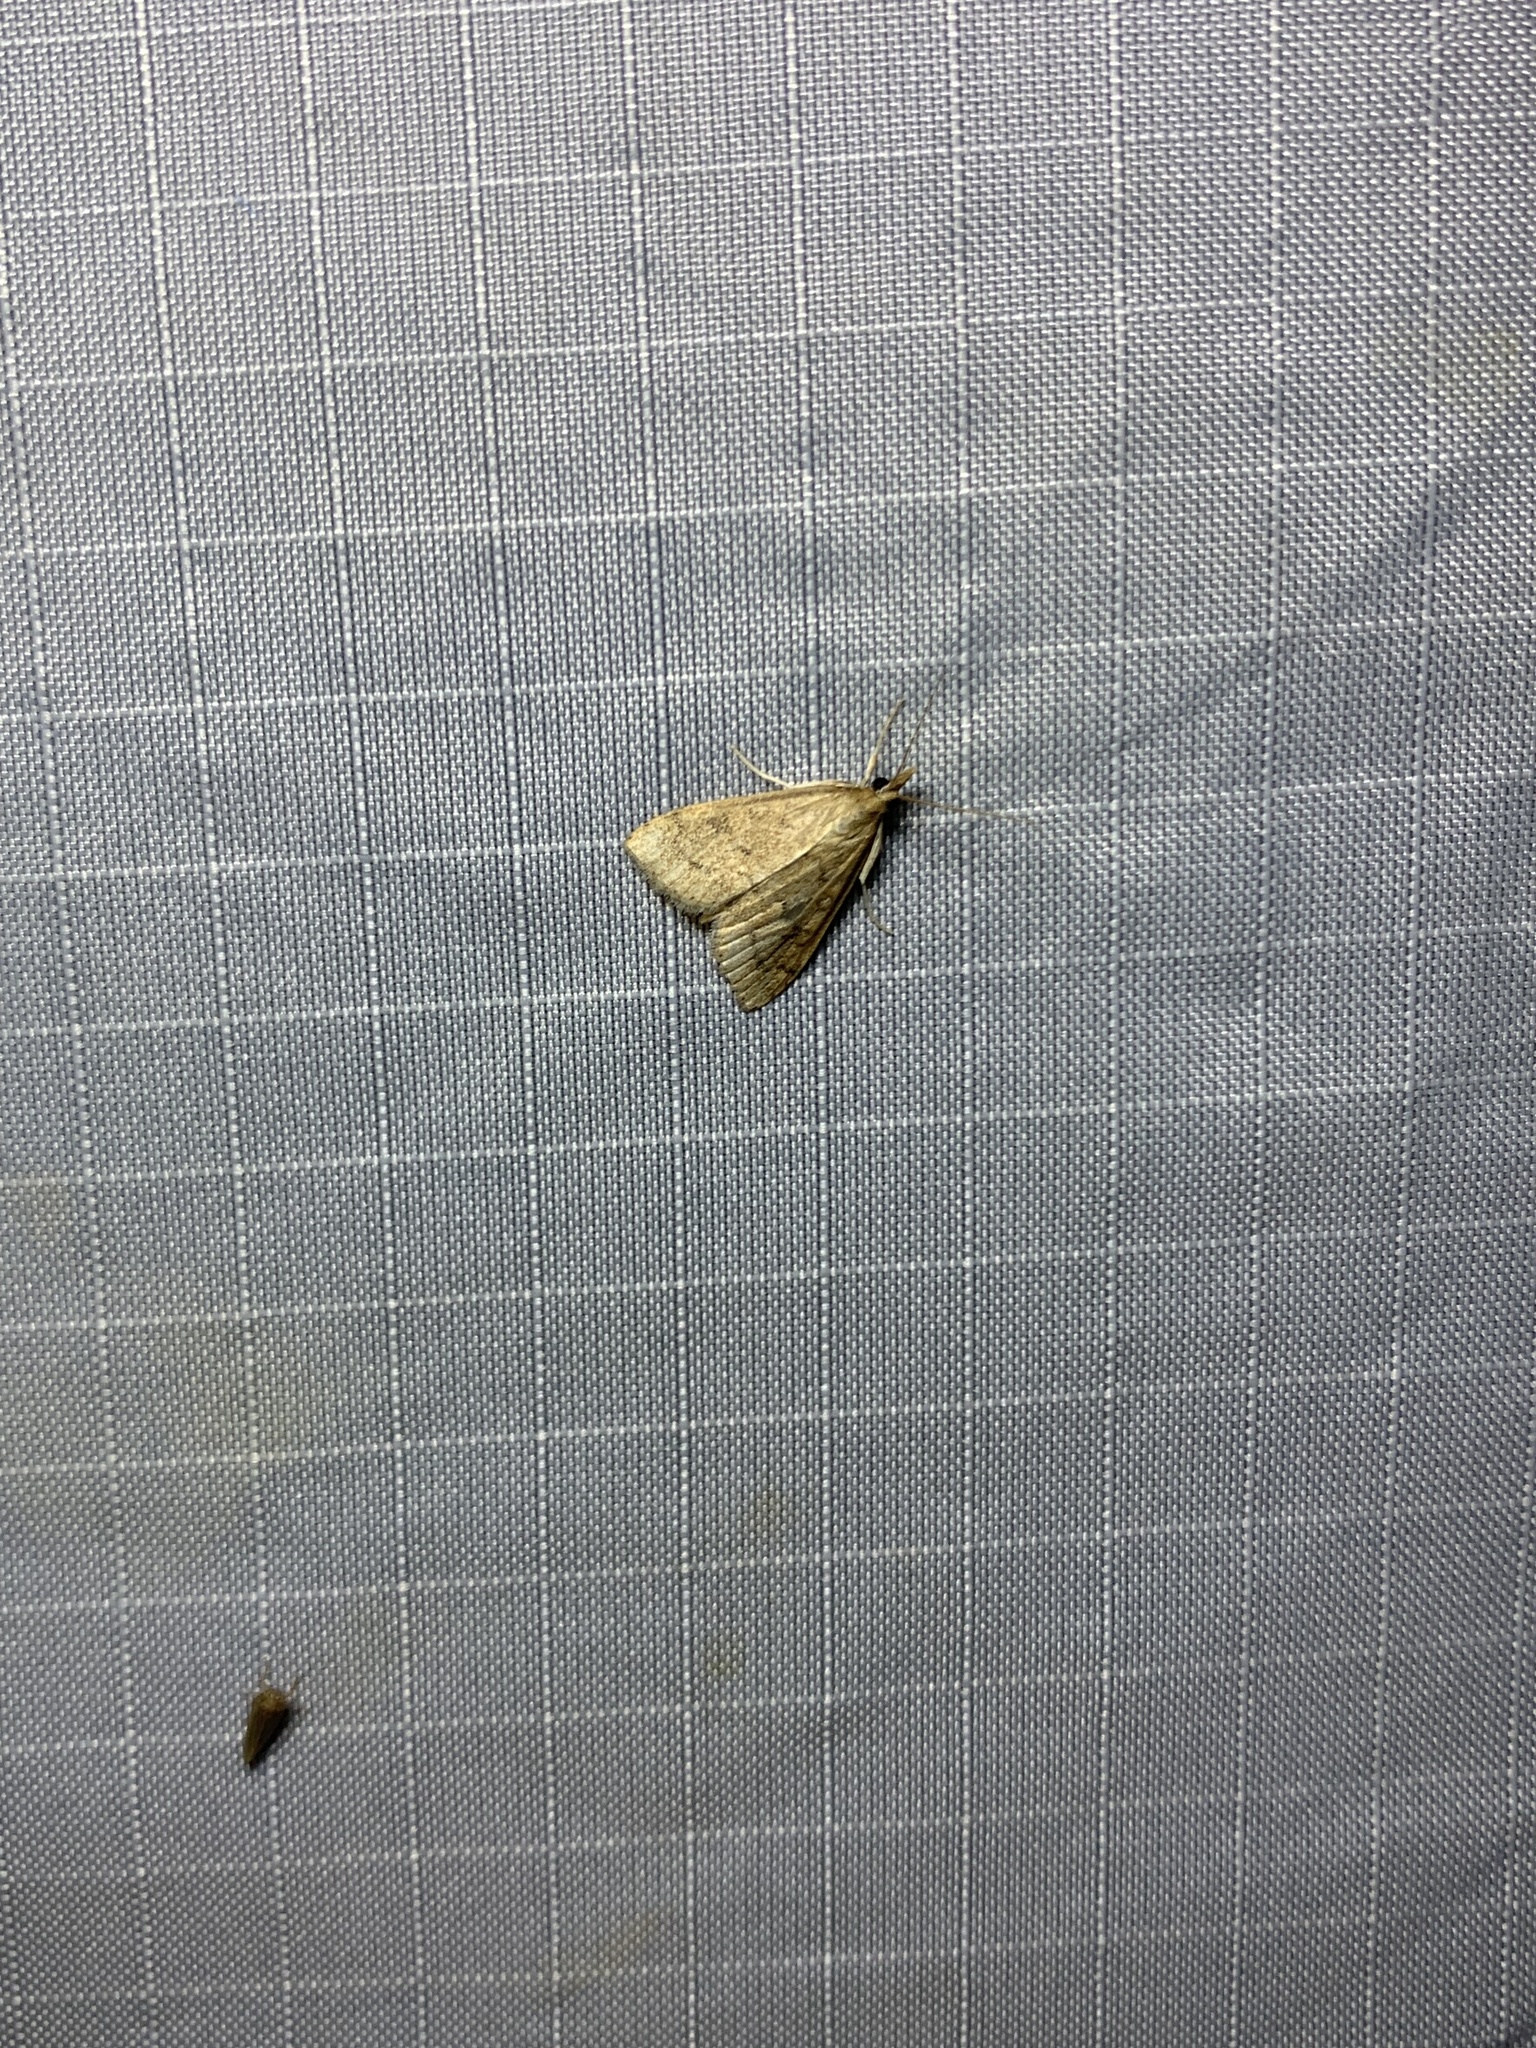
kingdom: Animalia
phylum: Arthropoda
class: Insecta
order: Lepidoptera
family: Crambidae
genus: Udea
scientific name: Udea rubigalis
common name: Celery leaftier moth
